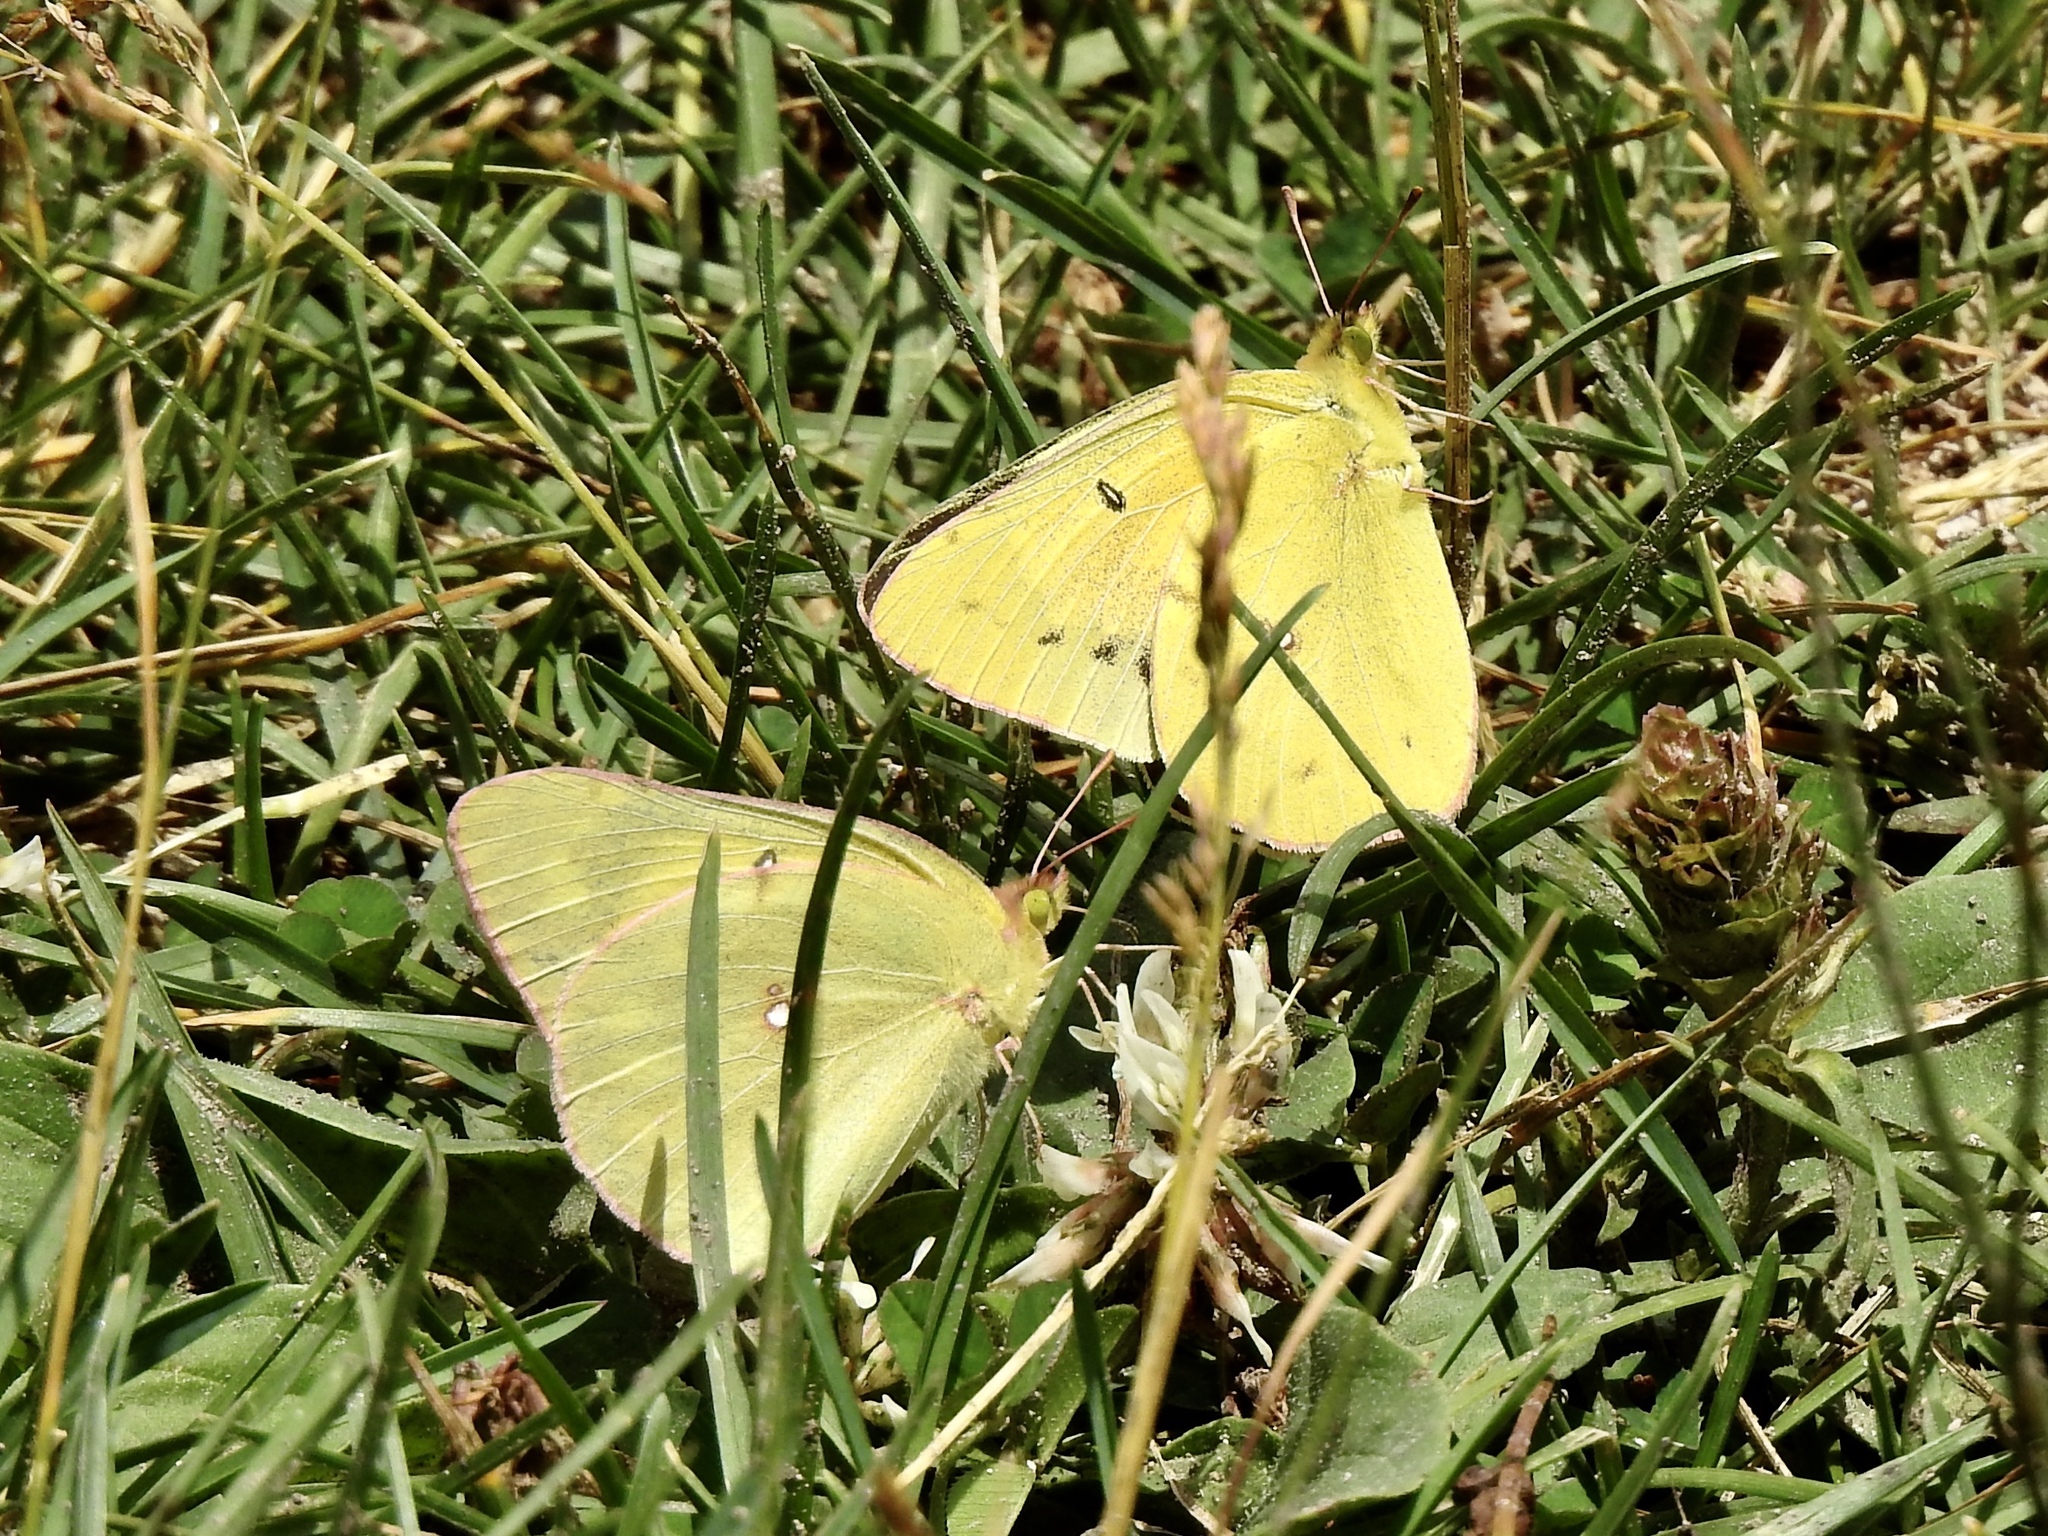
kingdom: Animalia
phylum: Arthropoda
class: Insecta
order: Lepidoptera
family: Pieridae
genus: Colias
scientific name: Colias eurytheme
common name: Alfalfa butterfly
